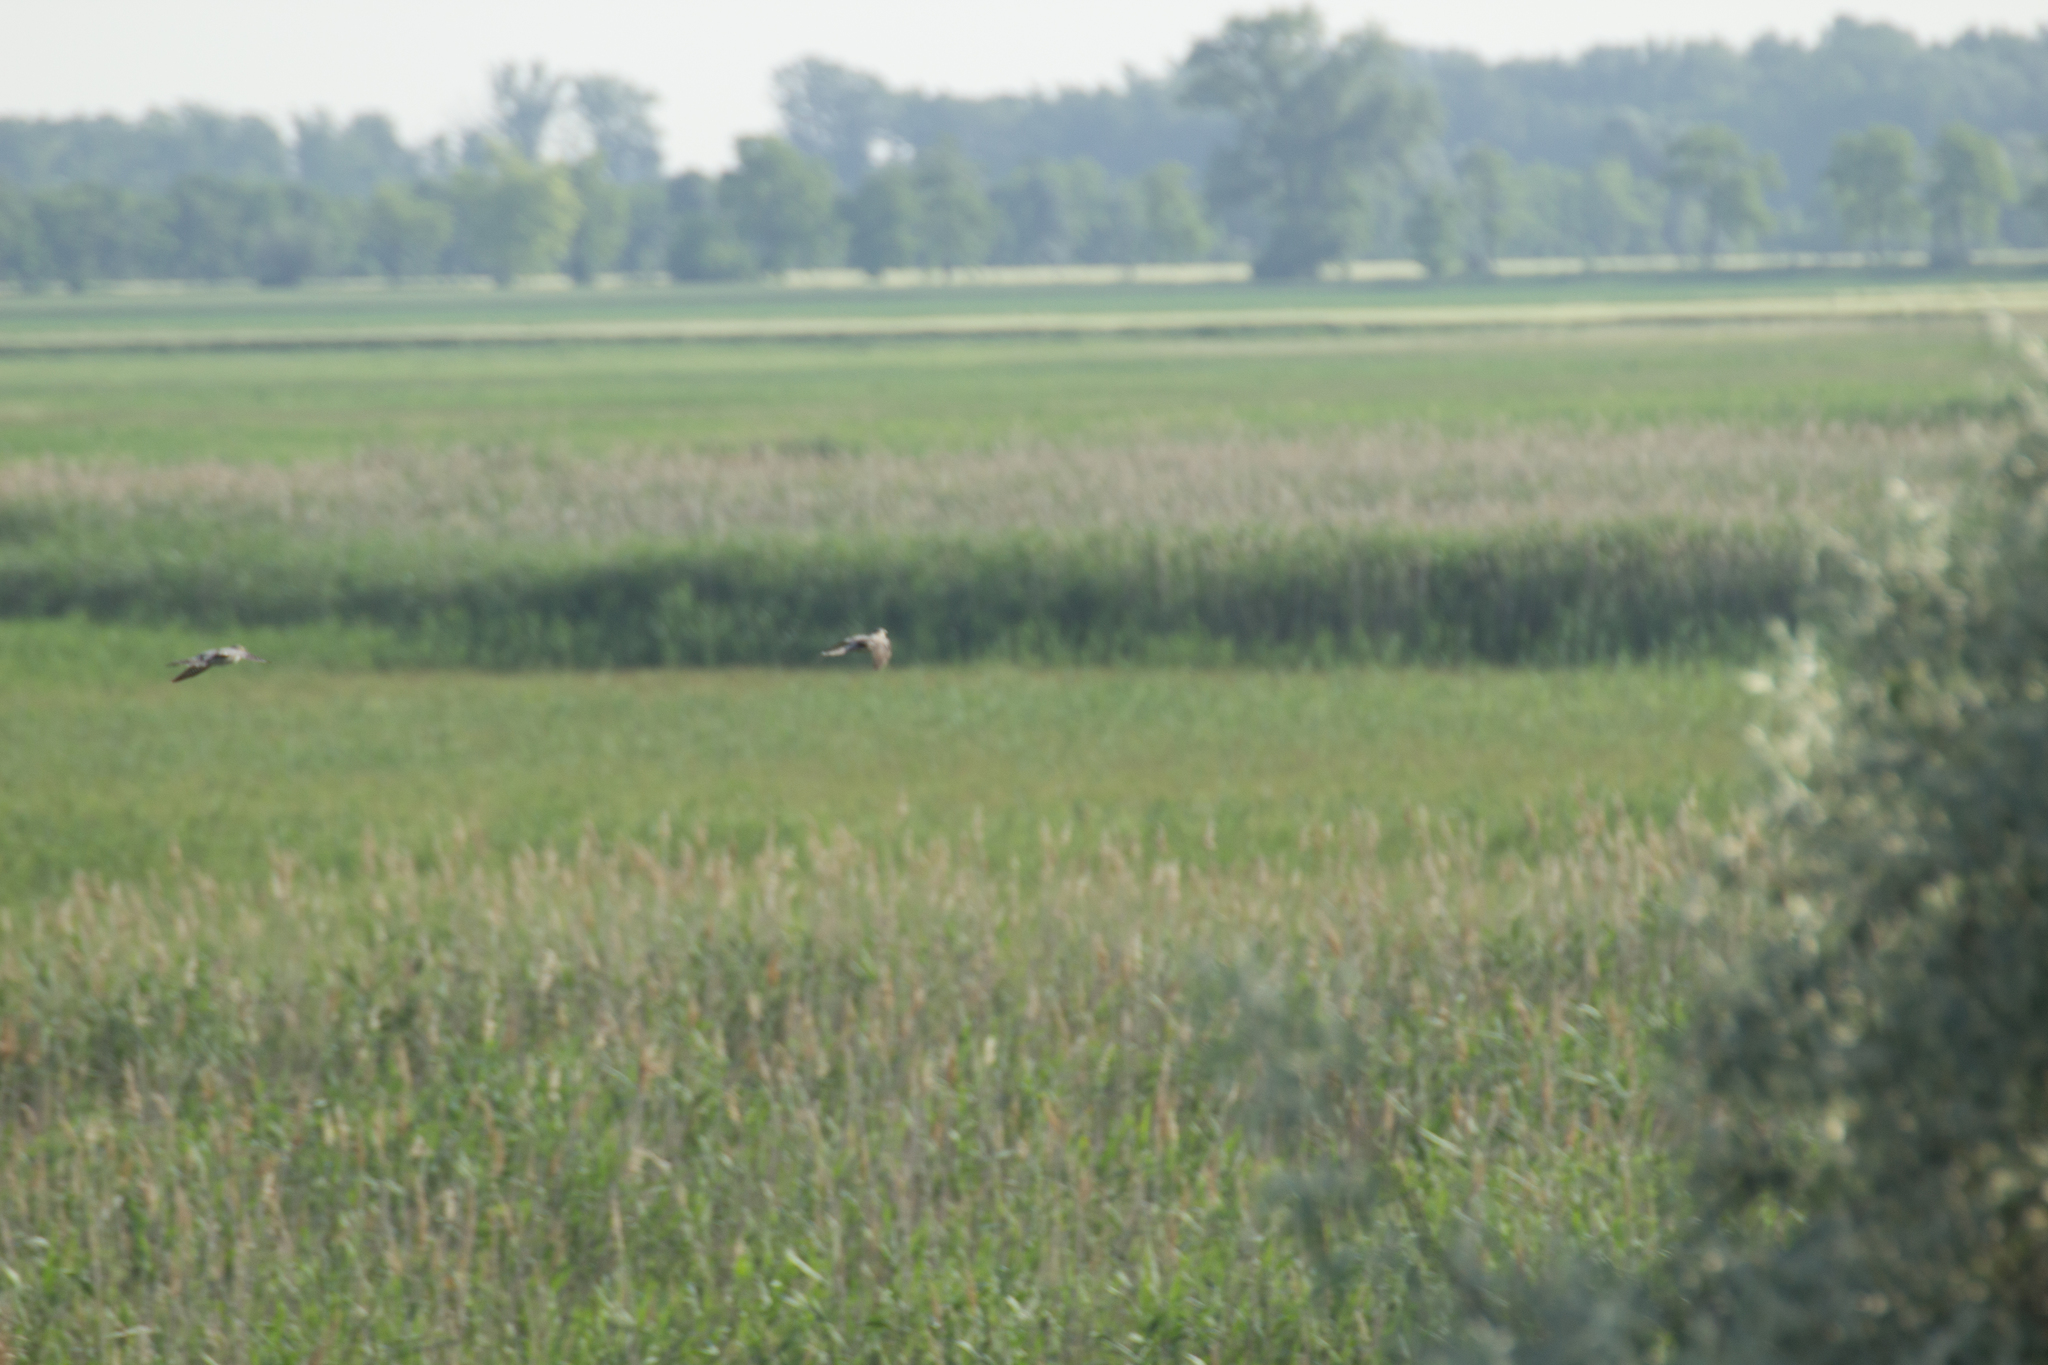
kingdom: Animalia
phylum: Chordata
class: Aves
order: Cuculiformes
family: Cuculidae
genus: Cuculus
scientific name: Cuculus canorus
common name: Common cuckoo
